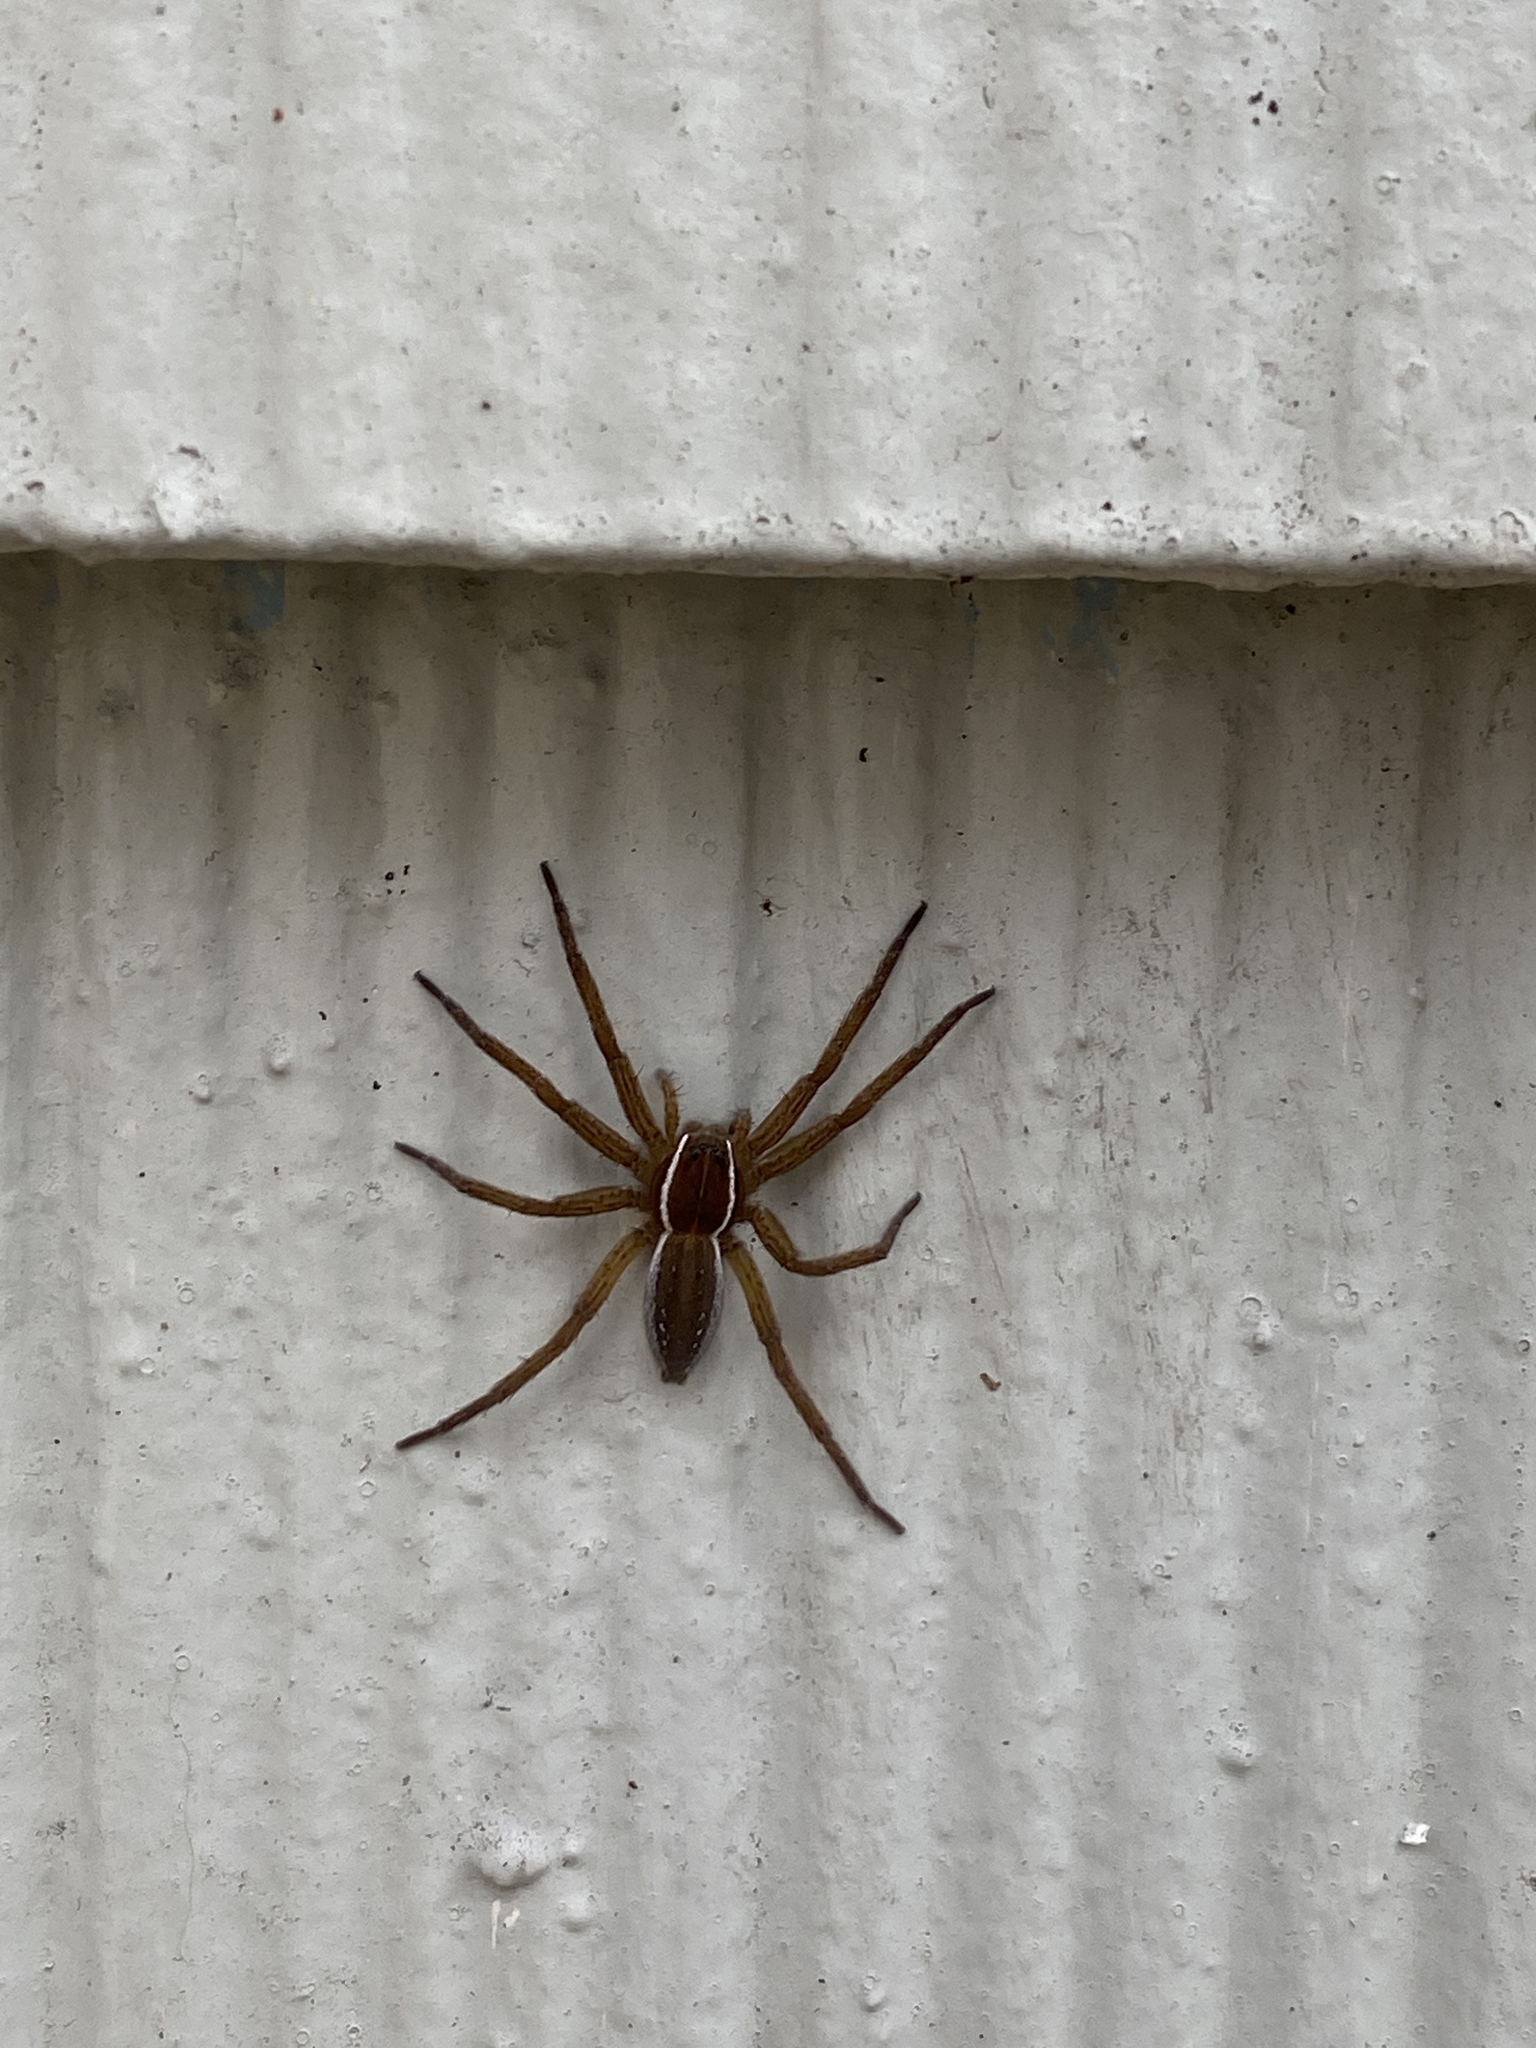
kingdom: Animalia
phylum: Arthropoda
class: Arachnida
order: Araneae
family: Pisauridae
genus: Dolomedes
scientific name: Dolomedes triton
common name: Six-spotted fishing spider
